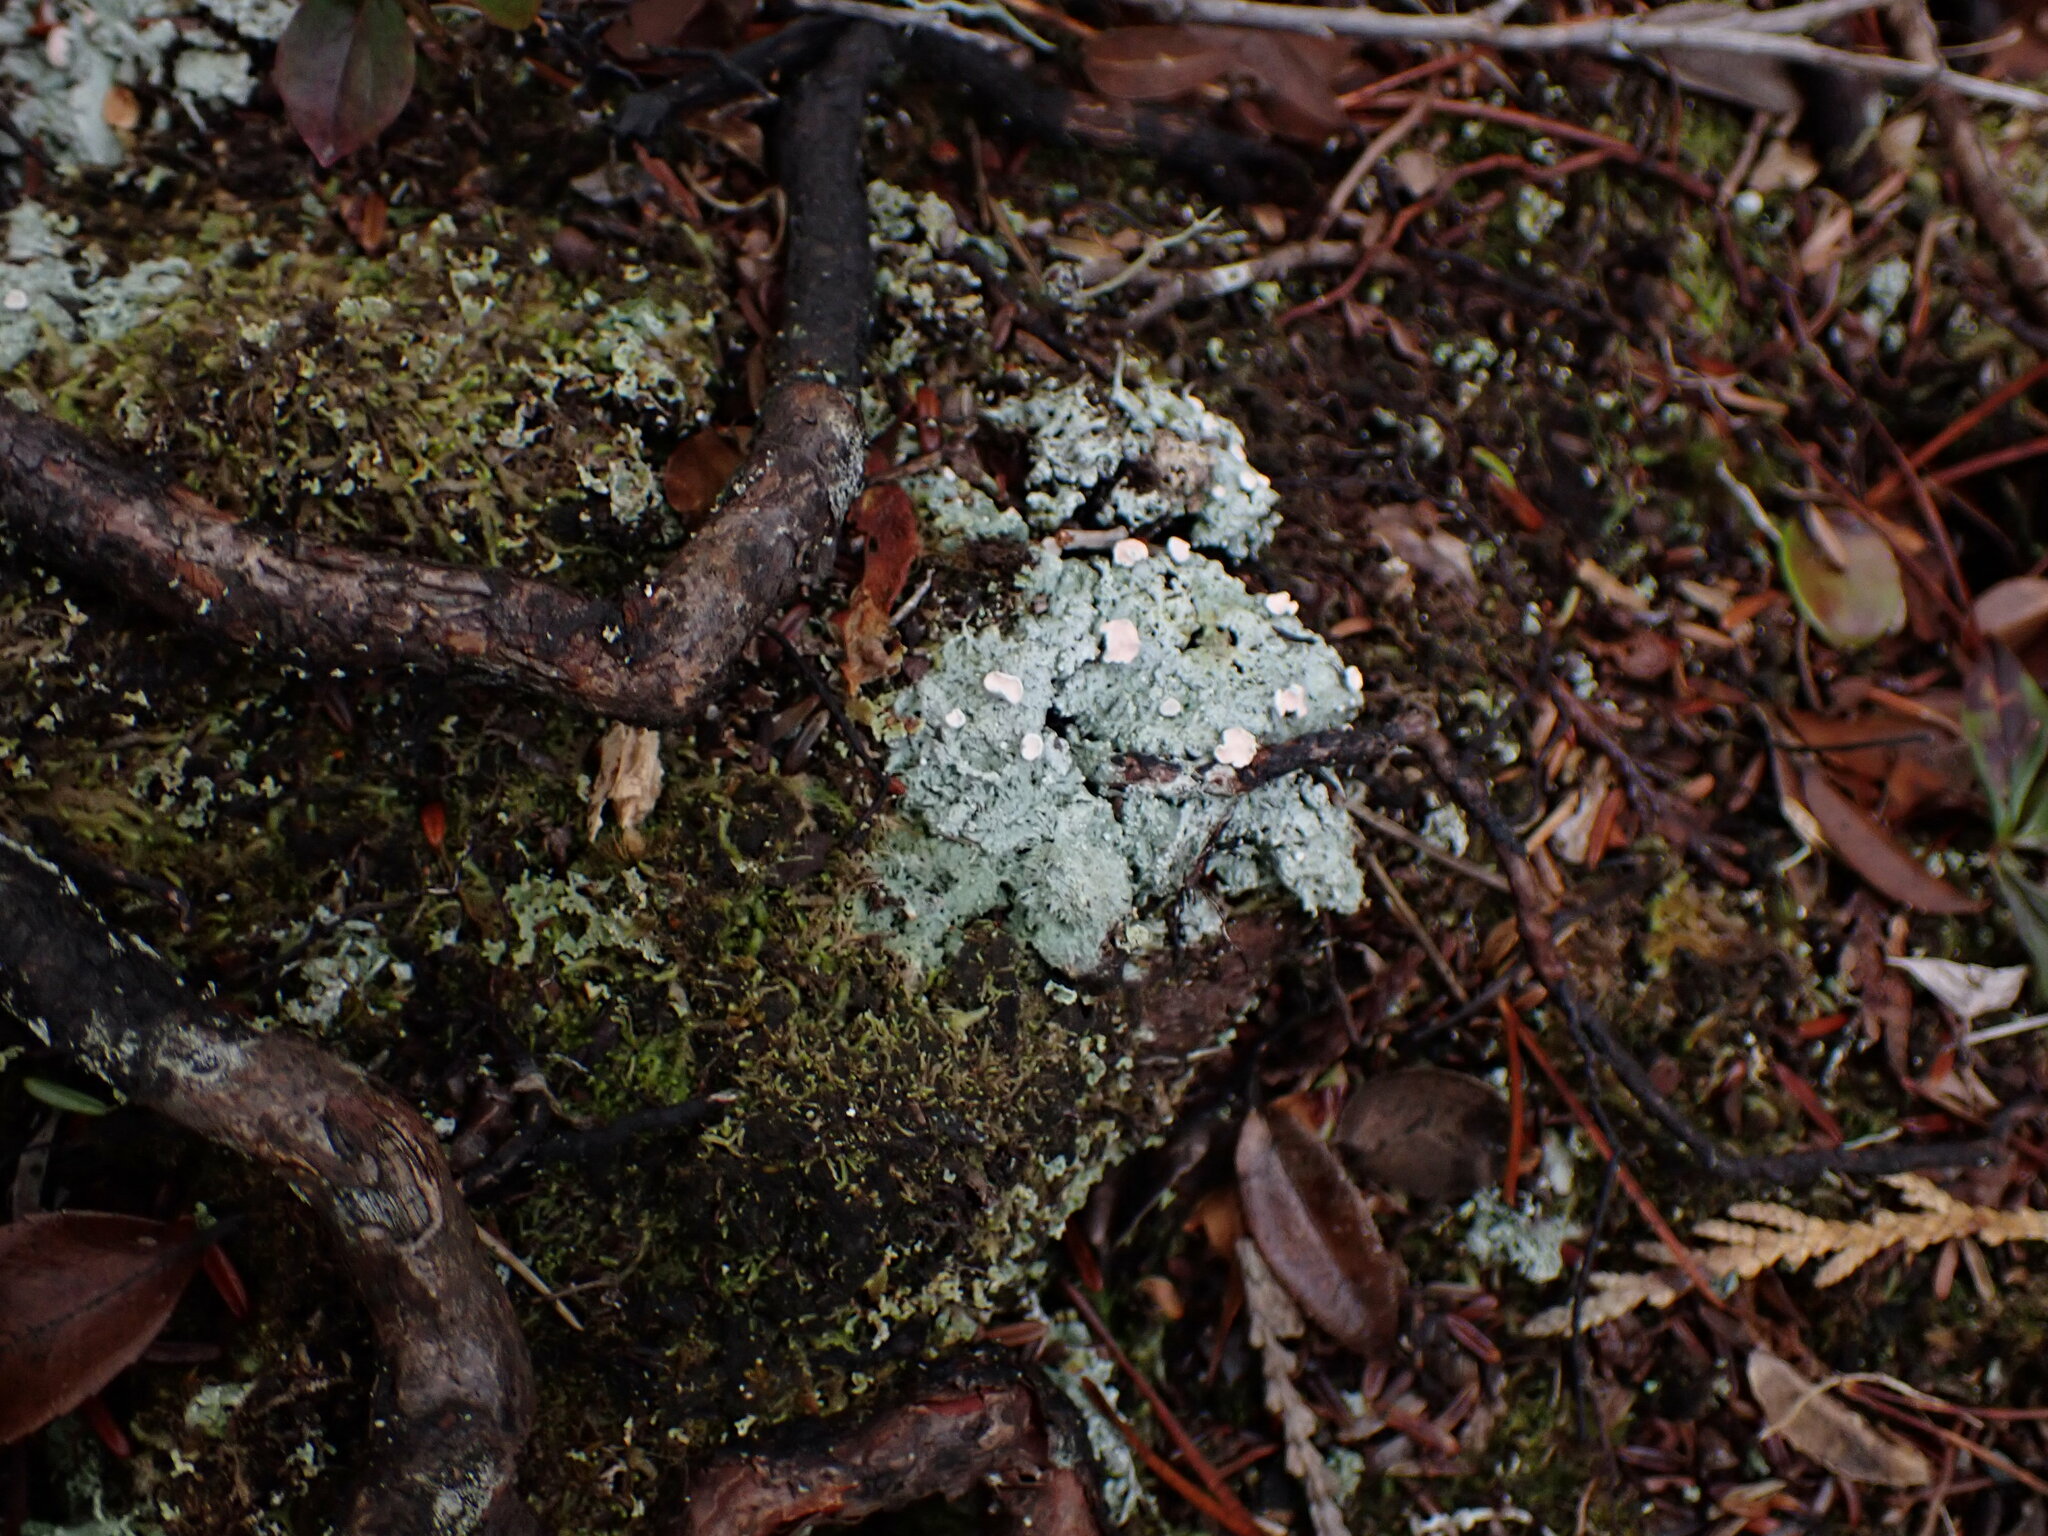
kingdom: Fungi
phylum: Ascomycota
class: Lecanoromycetes
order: Pertusariales
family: Icmadophilaceae
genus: Icmadophila
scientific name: Icmadophila ericetorum
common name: Candy lichen
